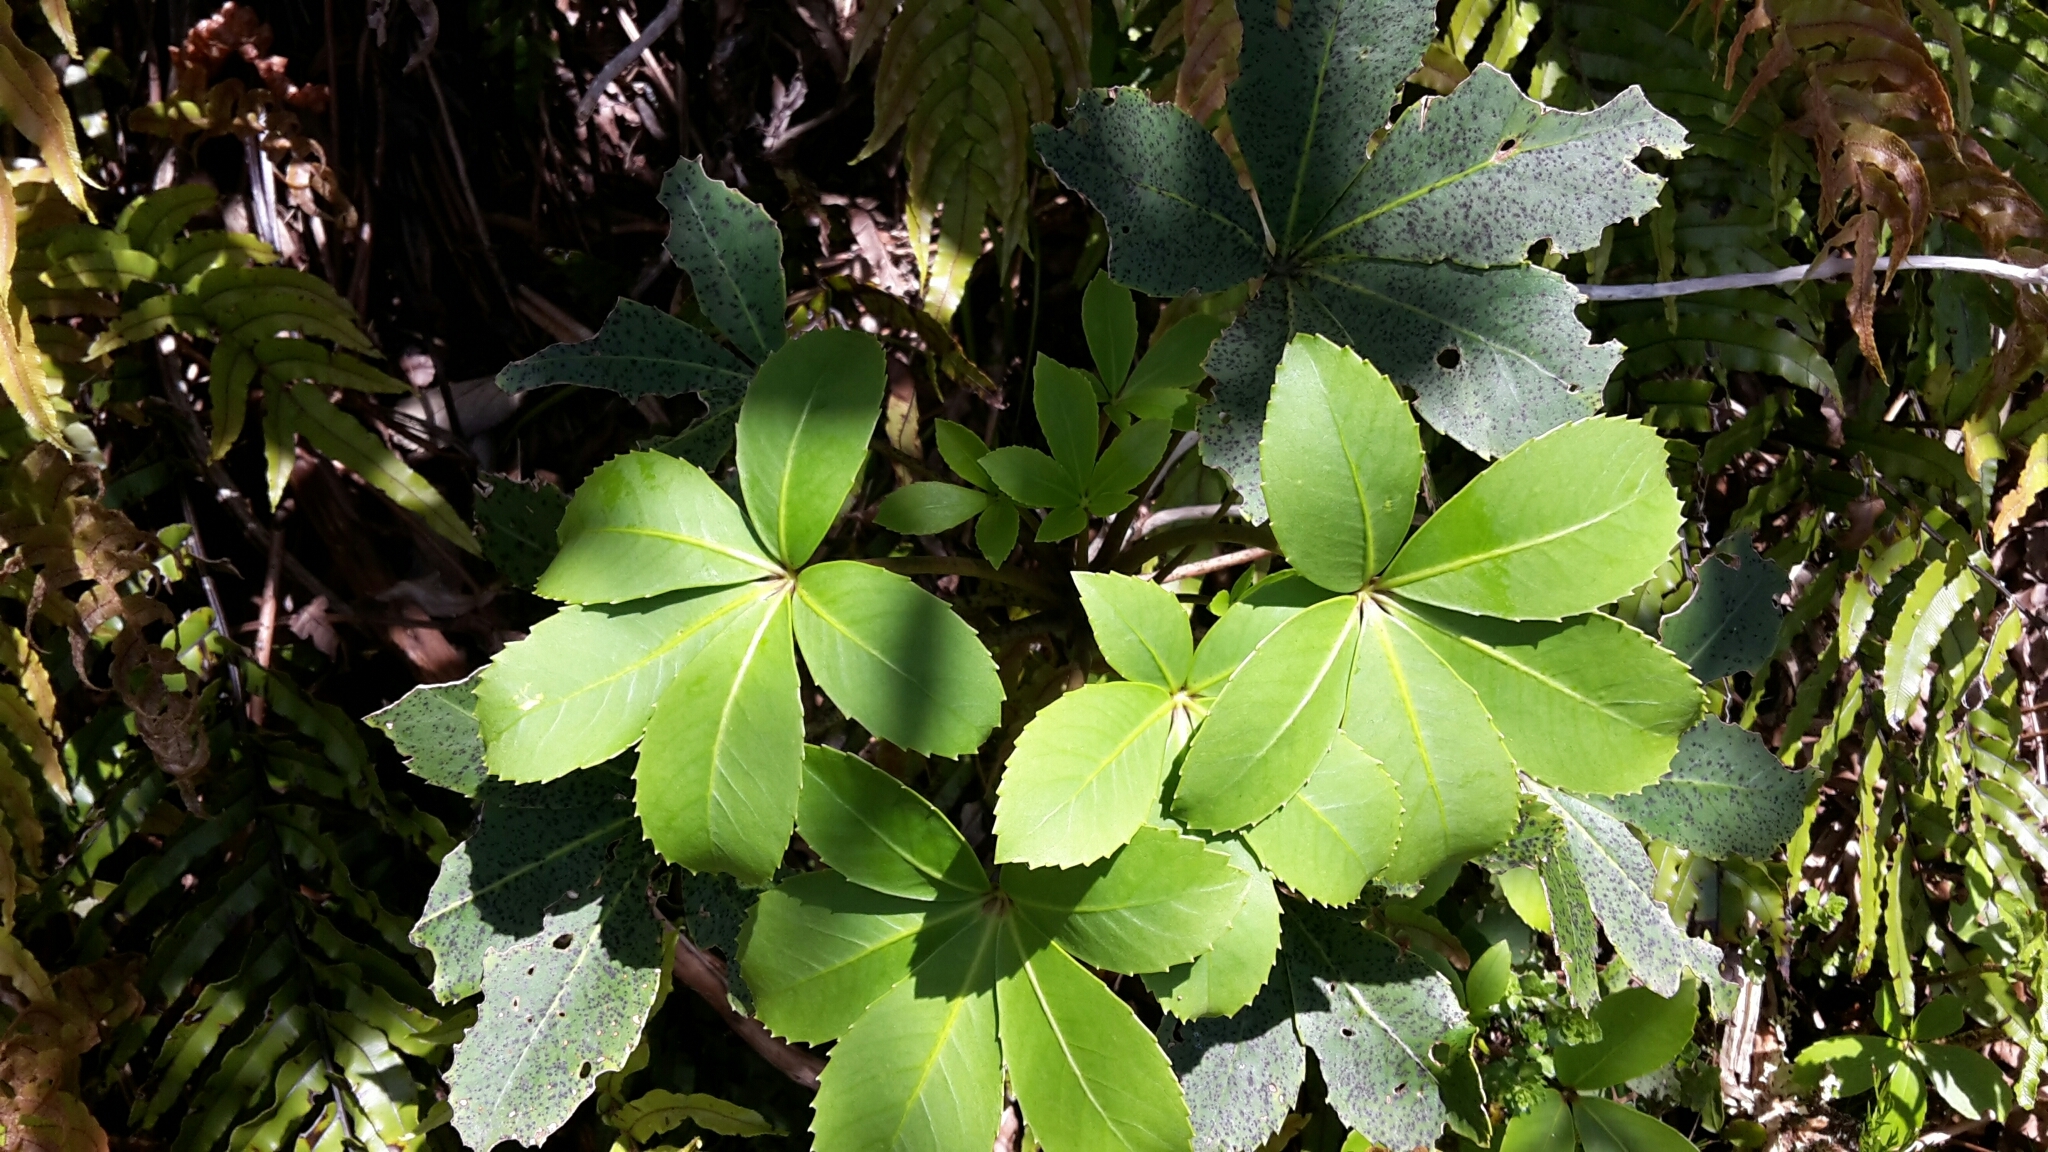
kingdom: Plantae
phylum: Tracheophyta
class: Magnoliopsida
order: Apiales
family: Araliaceae
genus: Neopanax
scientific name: Neopanax colensoi
